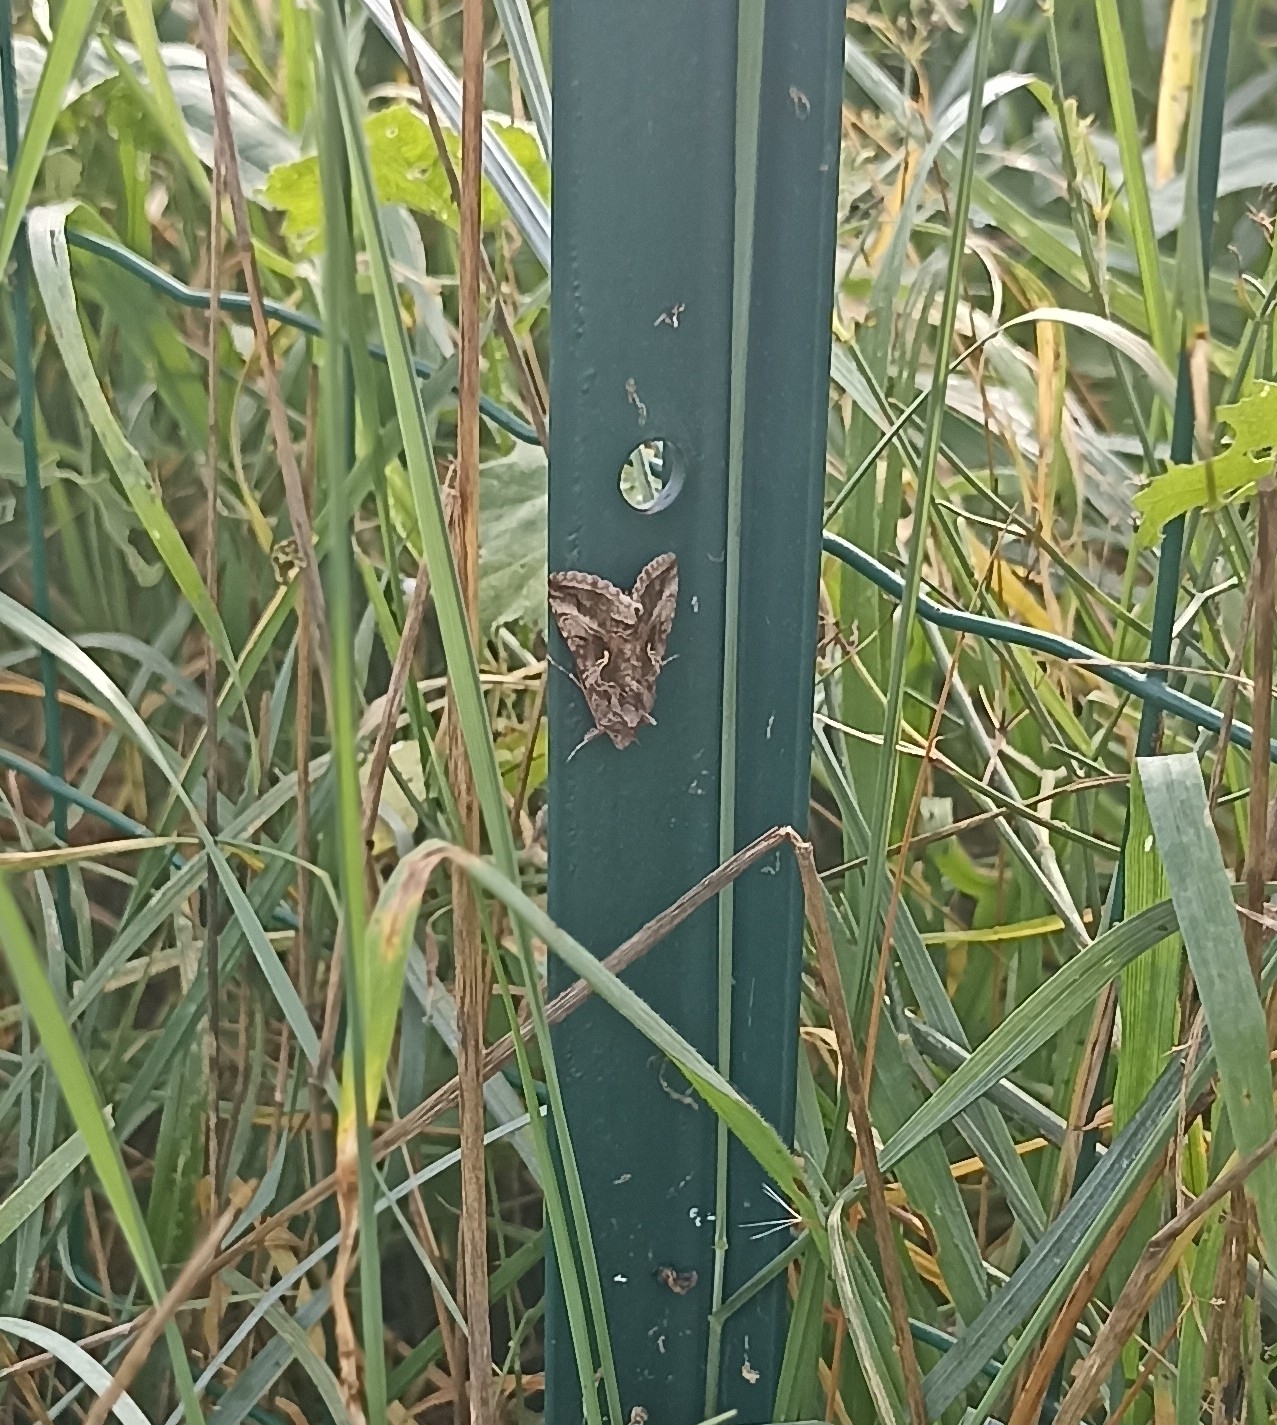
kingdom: Animalia
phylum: Arthropoda
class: Insecta
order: Lepidoptera
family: Noctuidae
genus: Autographa
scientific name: Autographa gamma
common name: Silver y
